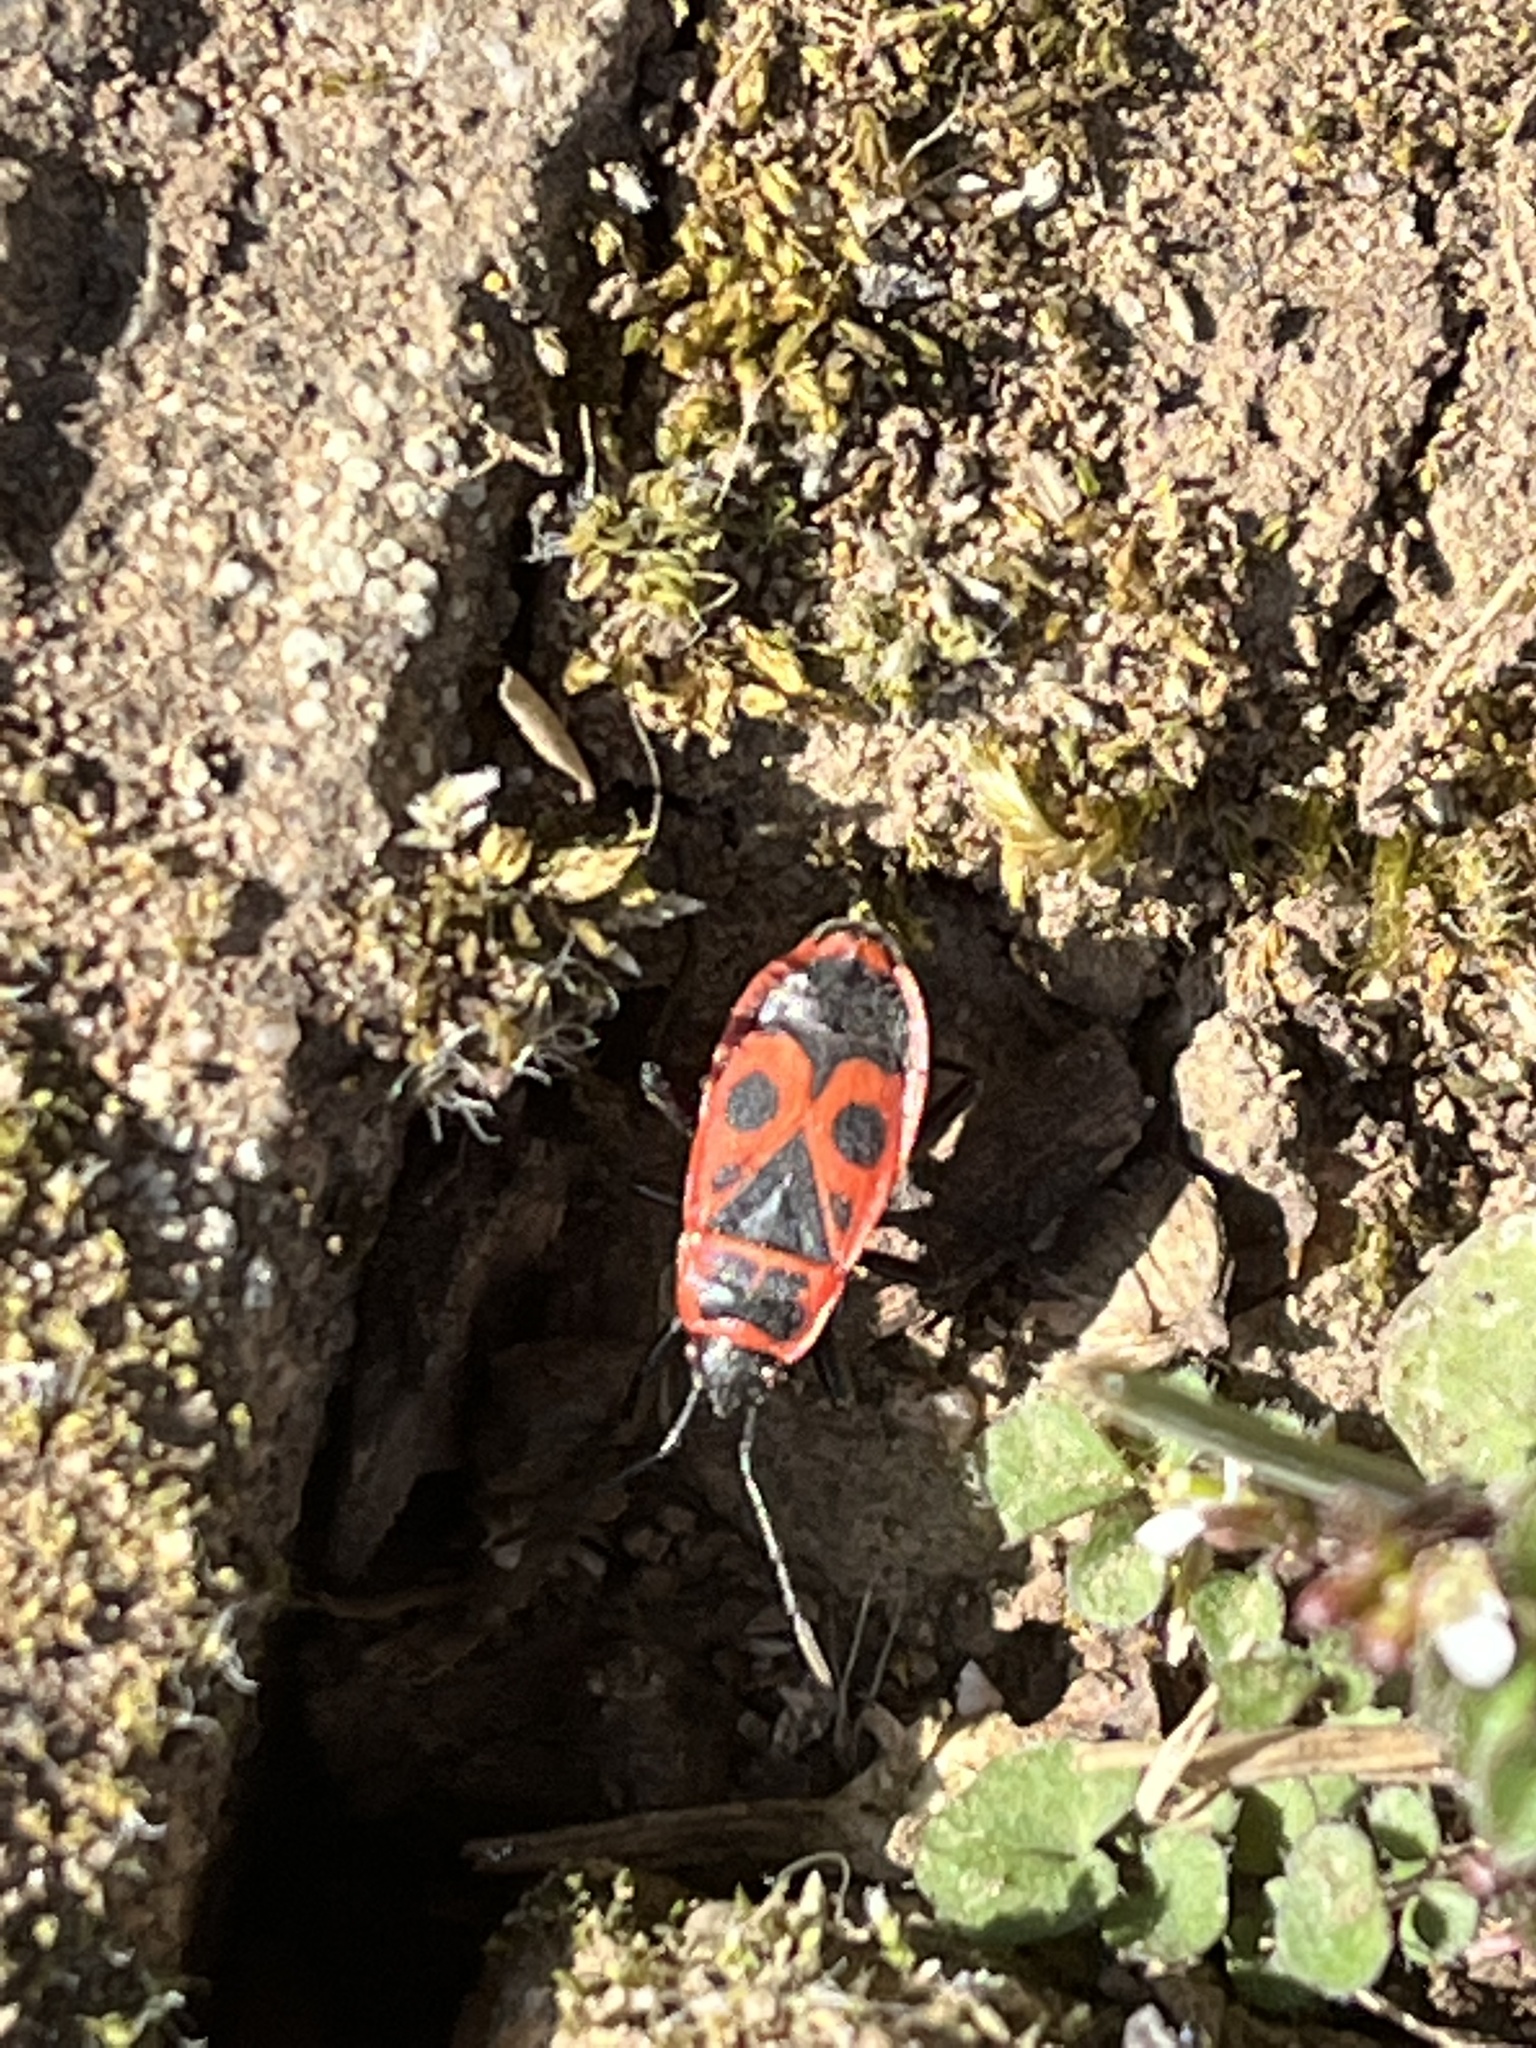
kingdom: Animalia
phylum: Arthropoda
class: Insecta
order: Hemiptera
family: Pyrrhocoridae
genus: Pyrrhocoris
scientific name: Pyrrhocoris apterus
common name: Firebug
